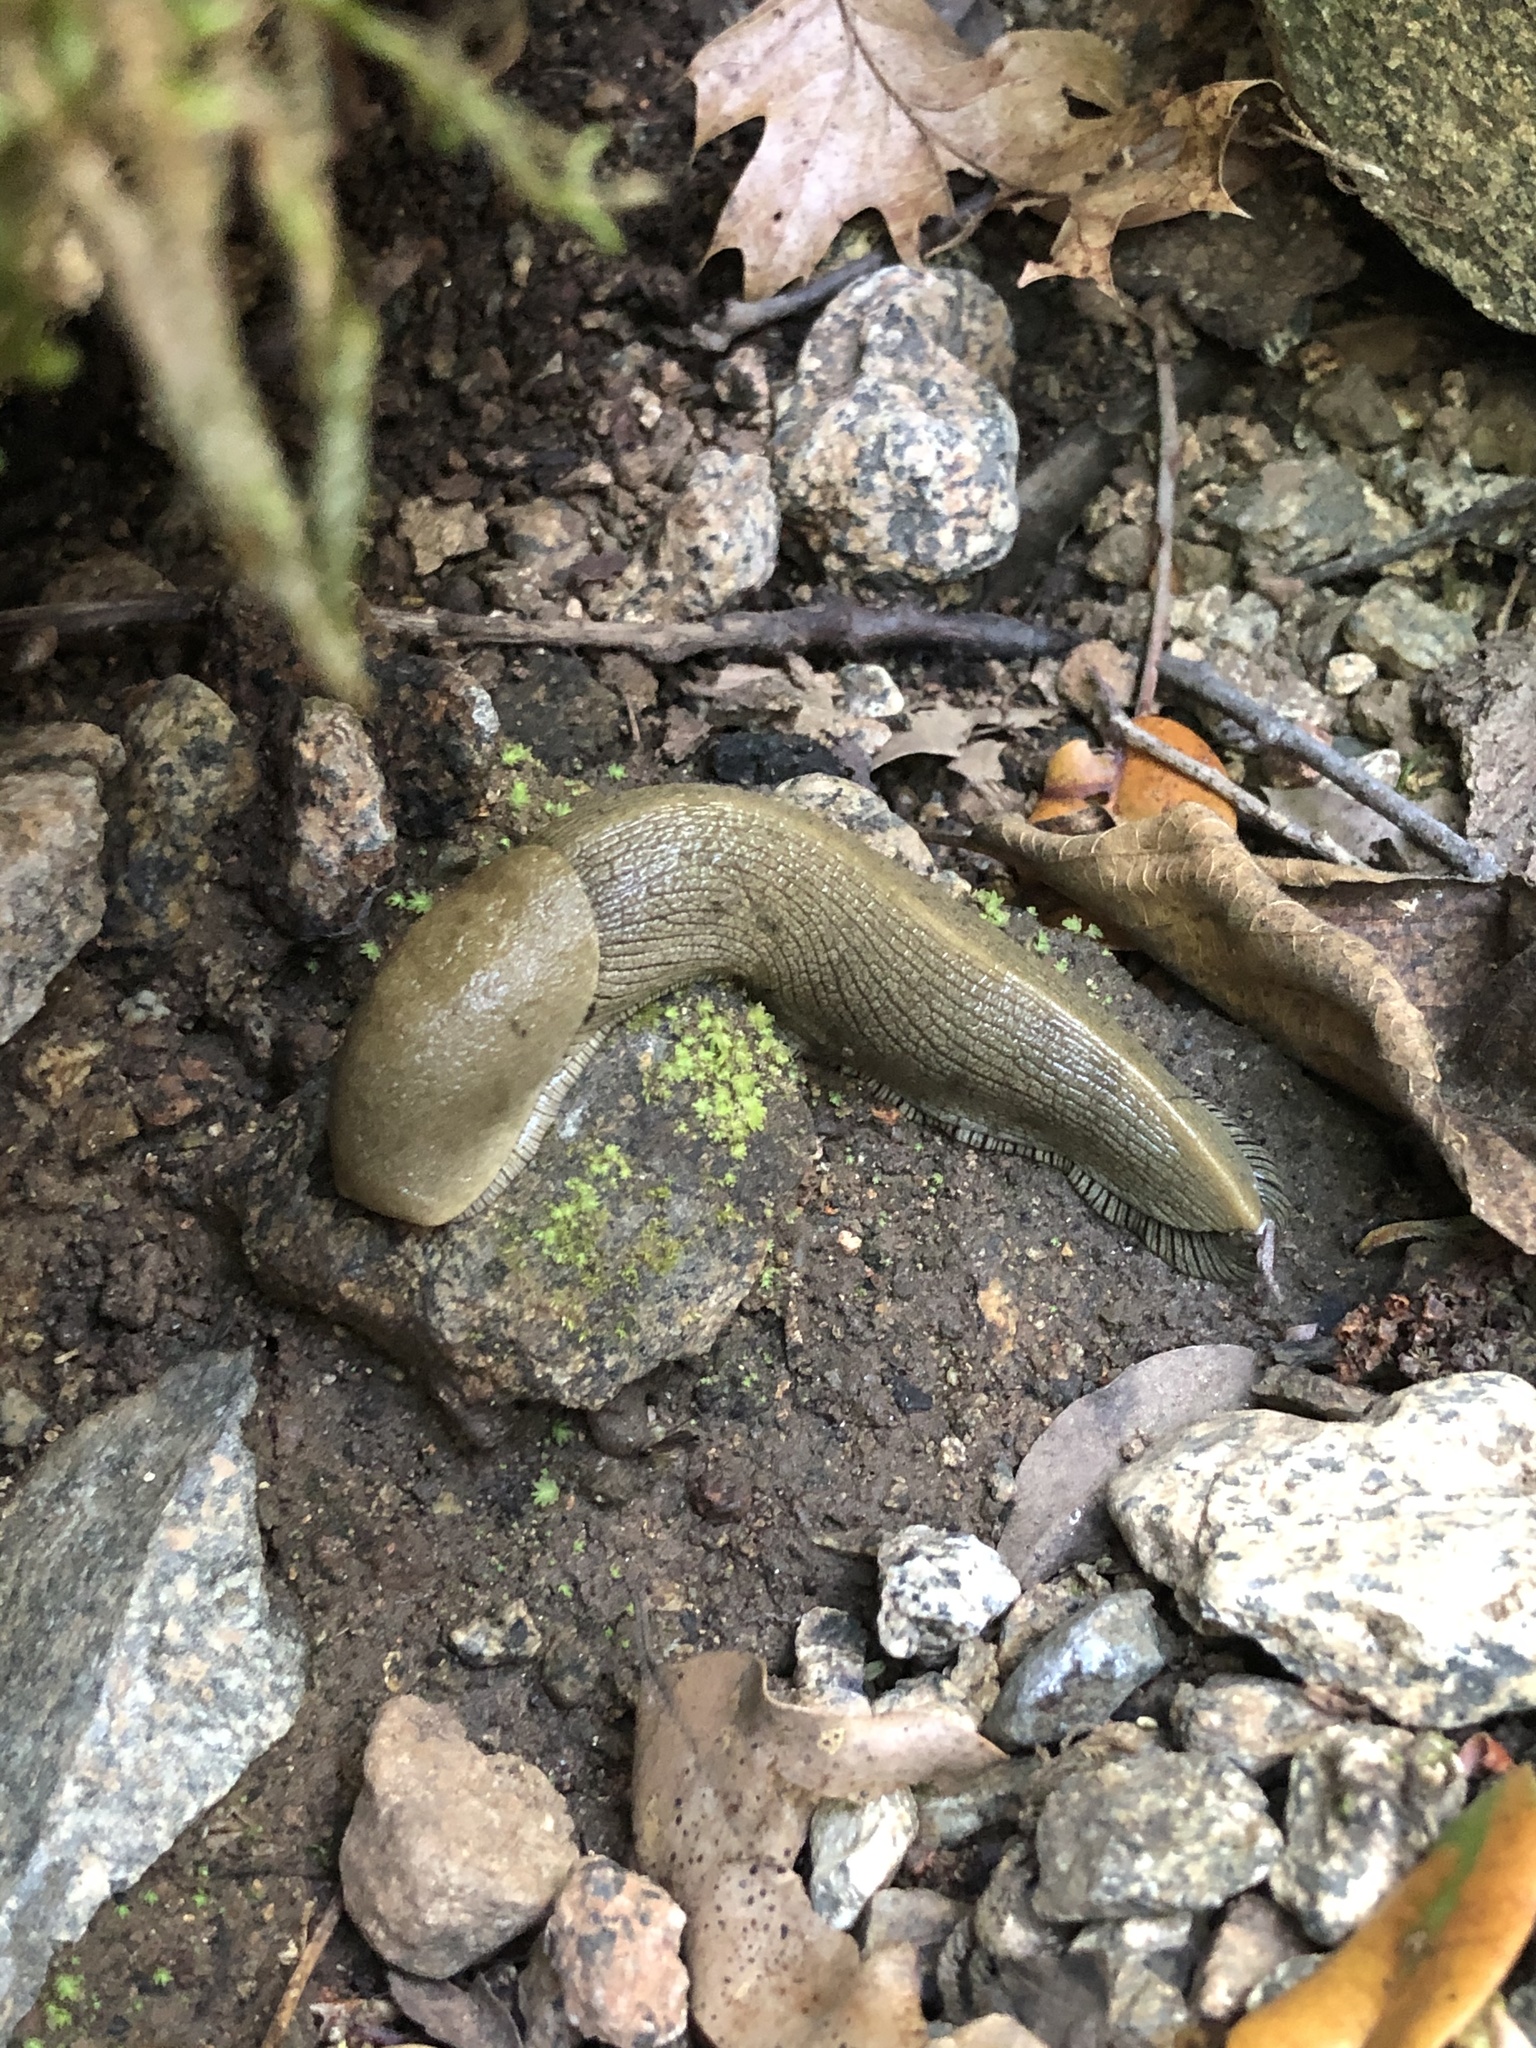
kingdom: Animalia
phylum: Mollusca
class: Gastropoda
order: Stylommatophora
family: Ariolimacidae
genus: Ariolimax
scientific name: Ariolimax buttoni
